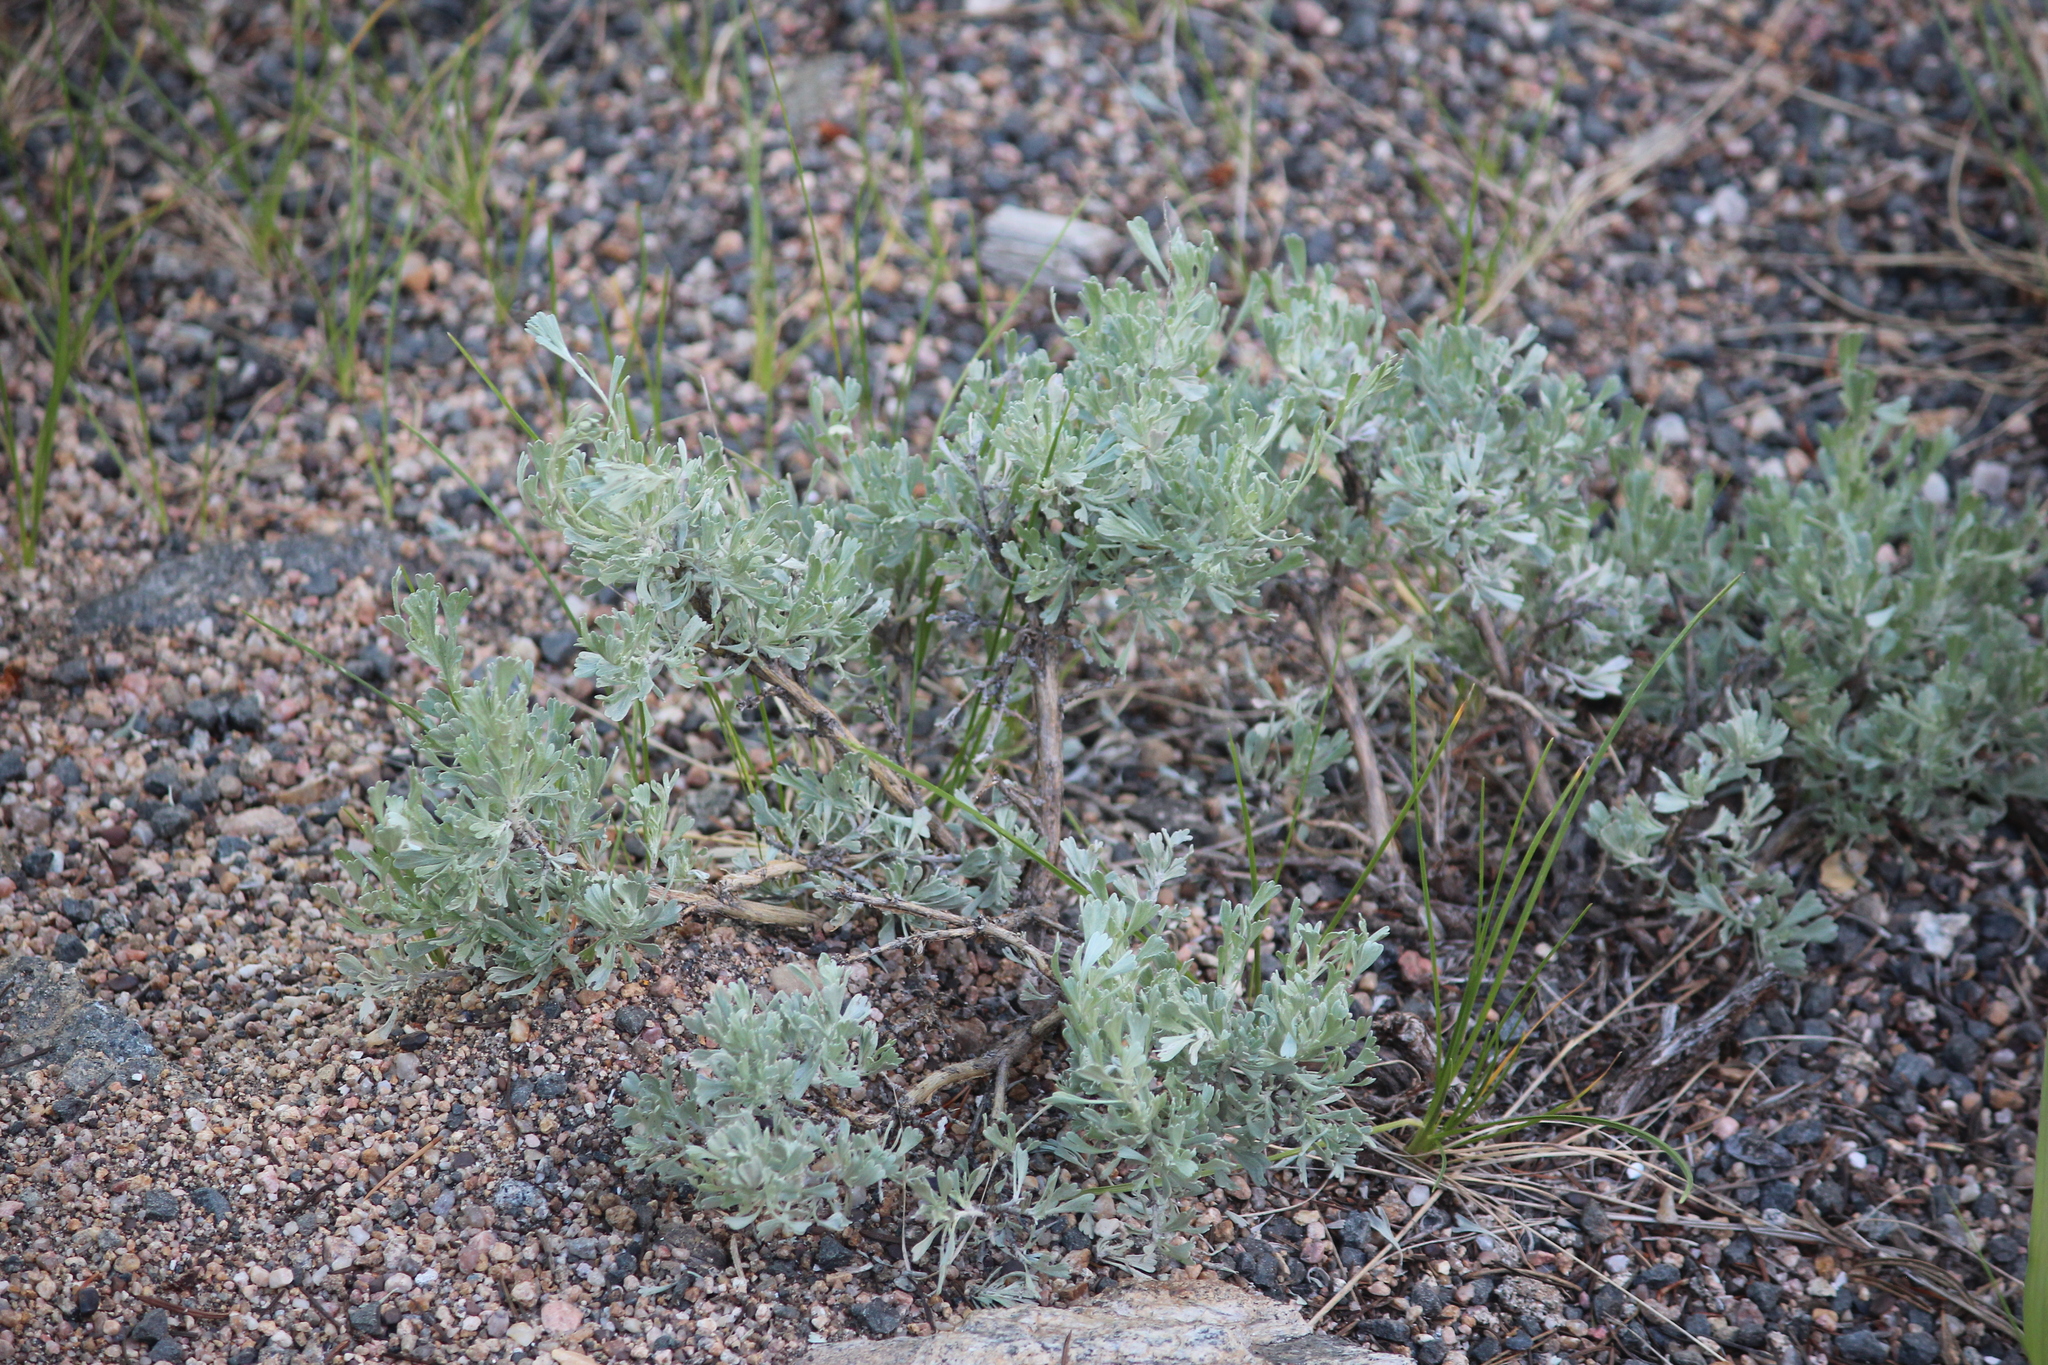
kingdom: Plantae
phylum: Tracheophyta
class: Magnoliopsida
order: Asterales
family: Asteraceae
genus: Artemisia
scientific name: Artemisia tridentata
